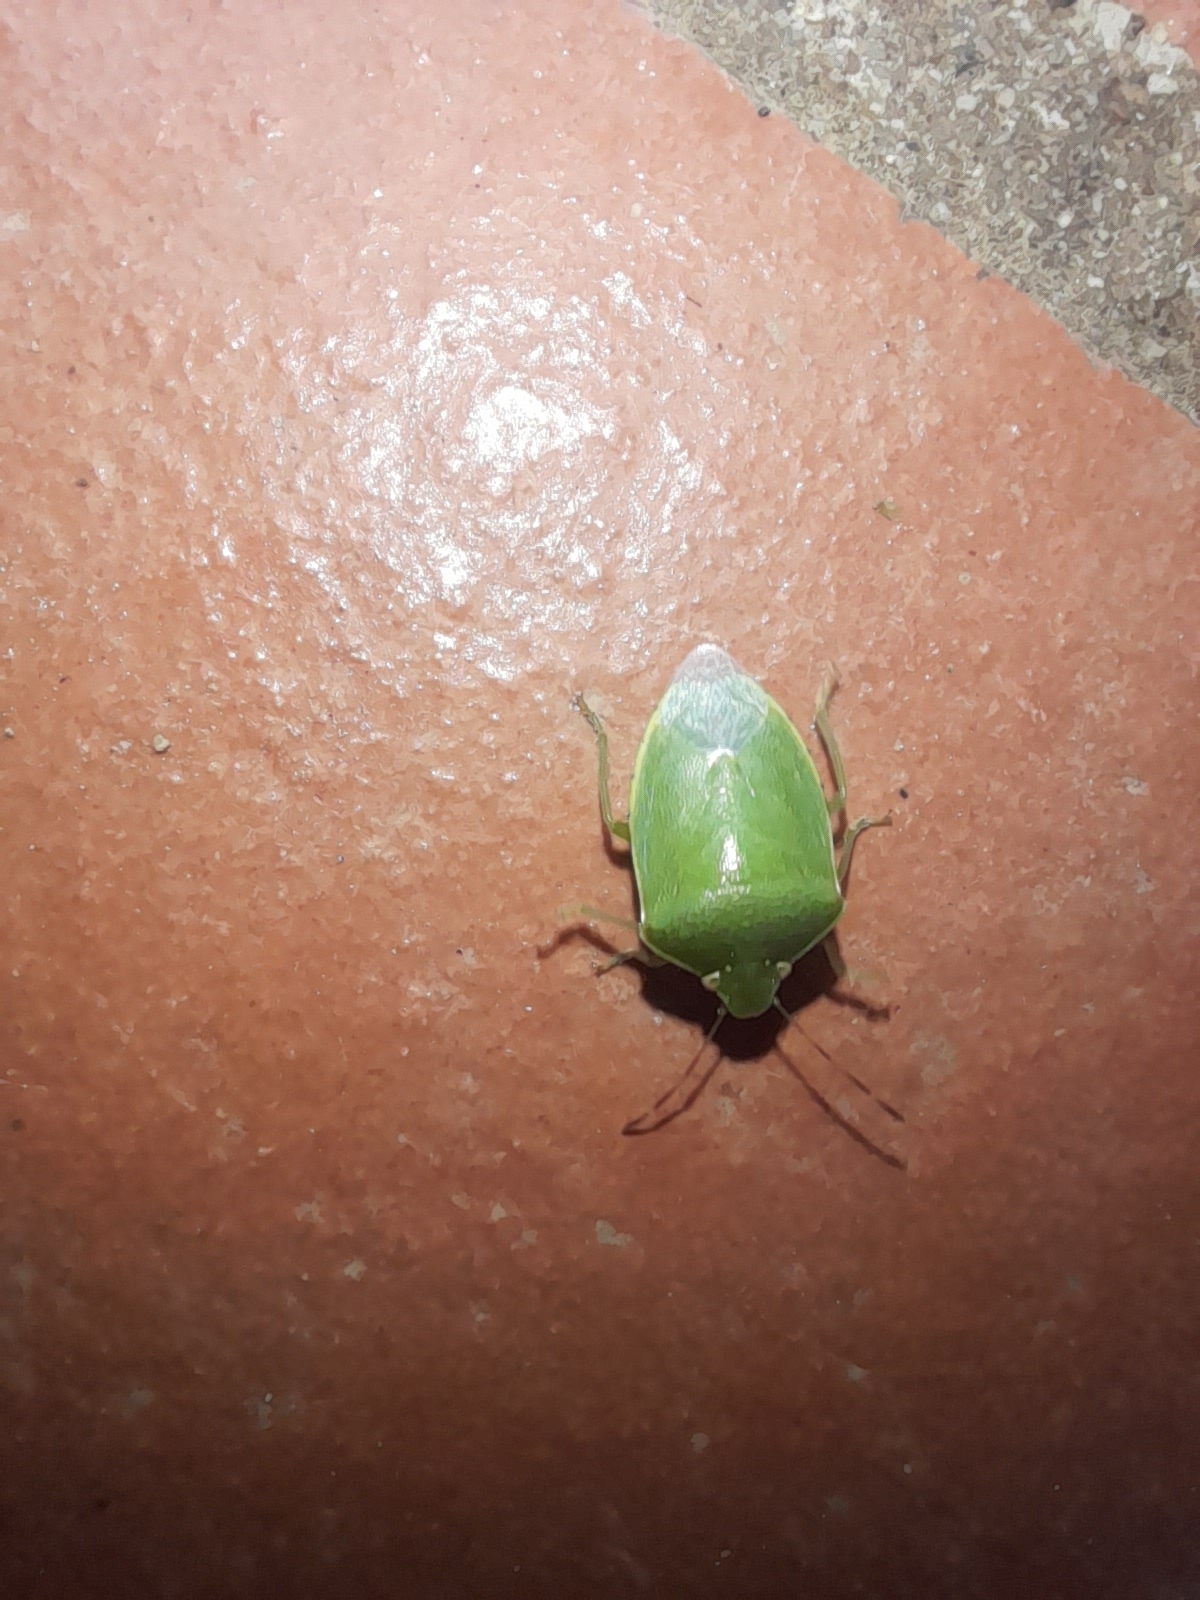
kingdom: Animalia
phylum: Arthropoda
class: Insecta
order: Hemiptera
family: Pentatomidae
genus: Acrosternum
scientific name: Acrosternum heegeri
